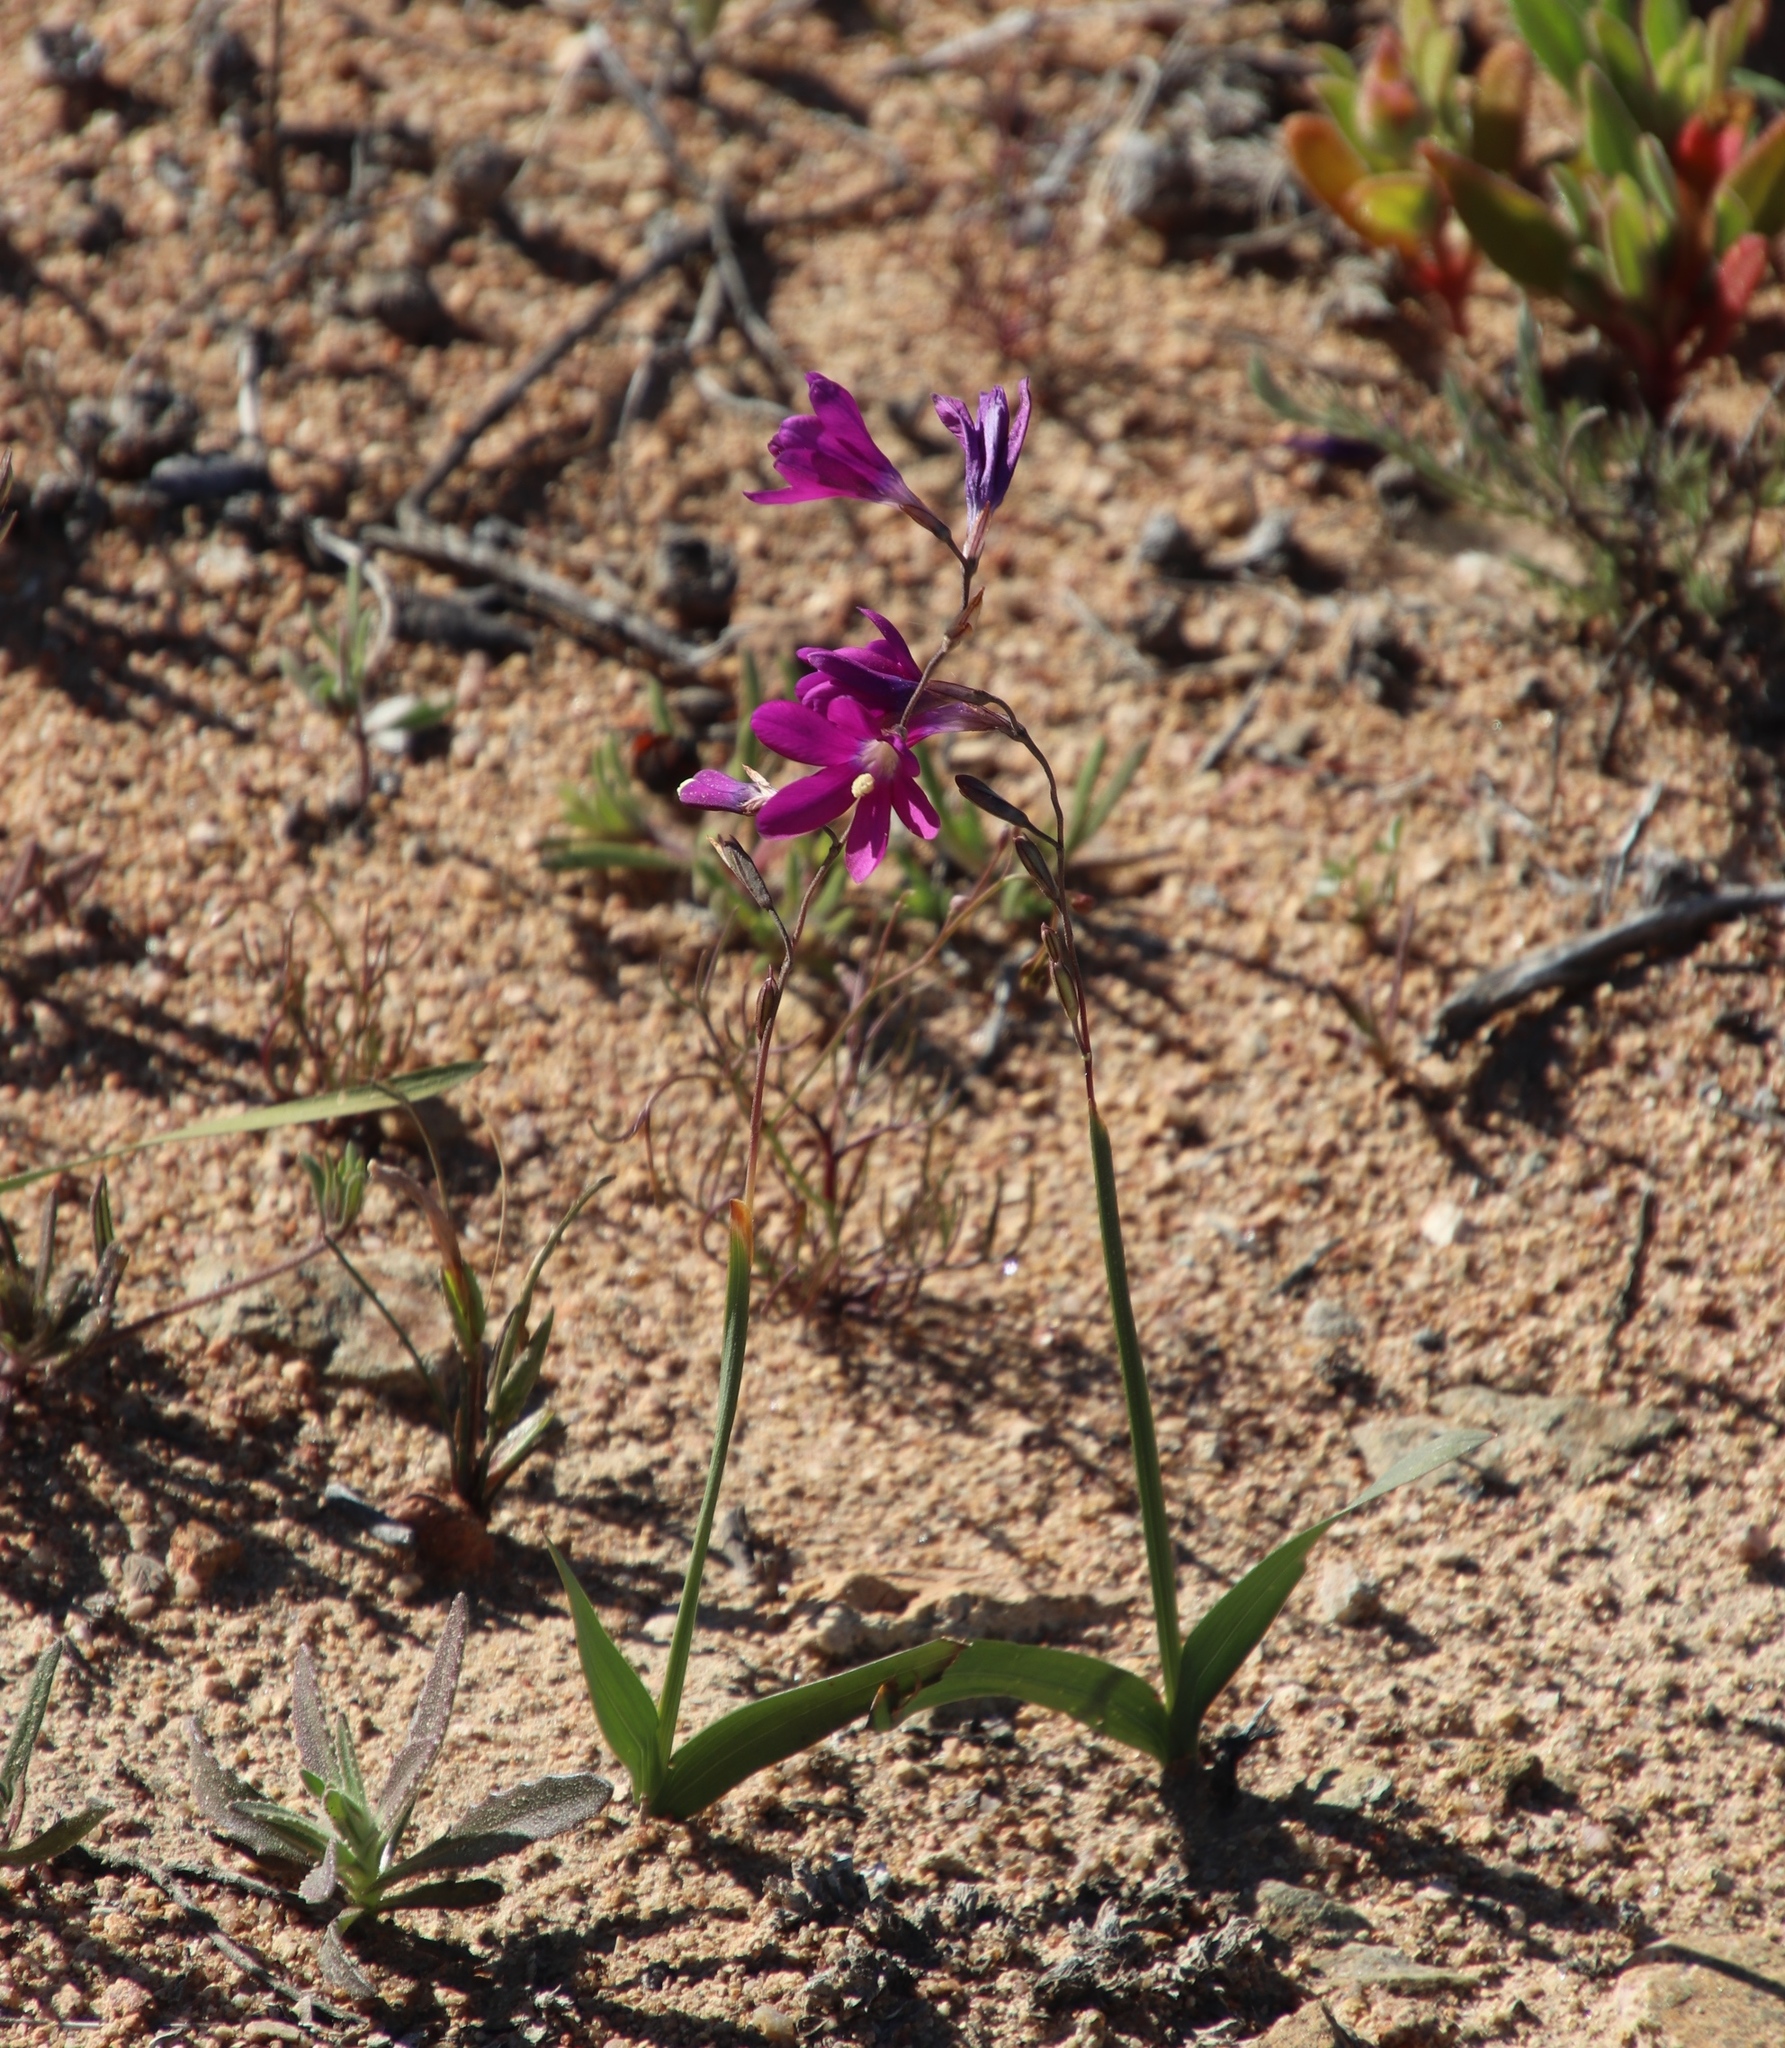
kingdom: Plantae
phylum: Tracheophyta
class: Liliopsida
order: Asparagales
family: Iridaceae
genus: Ixia
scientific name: Ixia ramulosa
